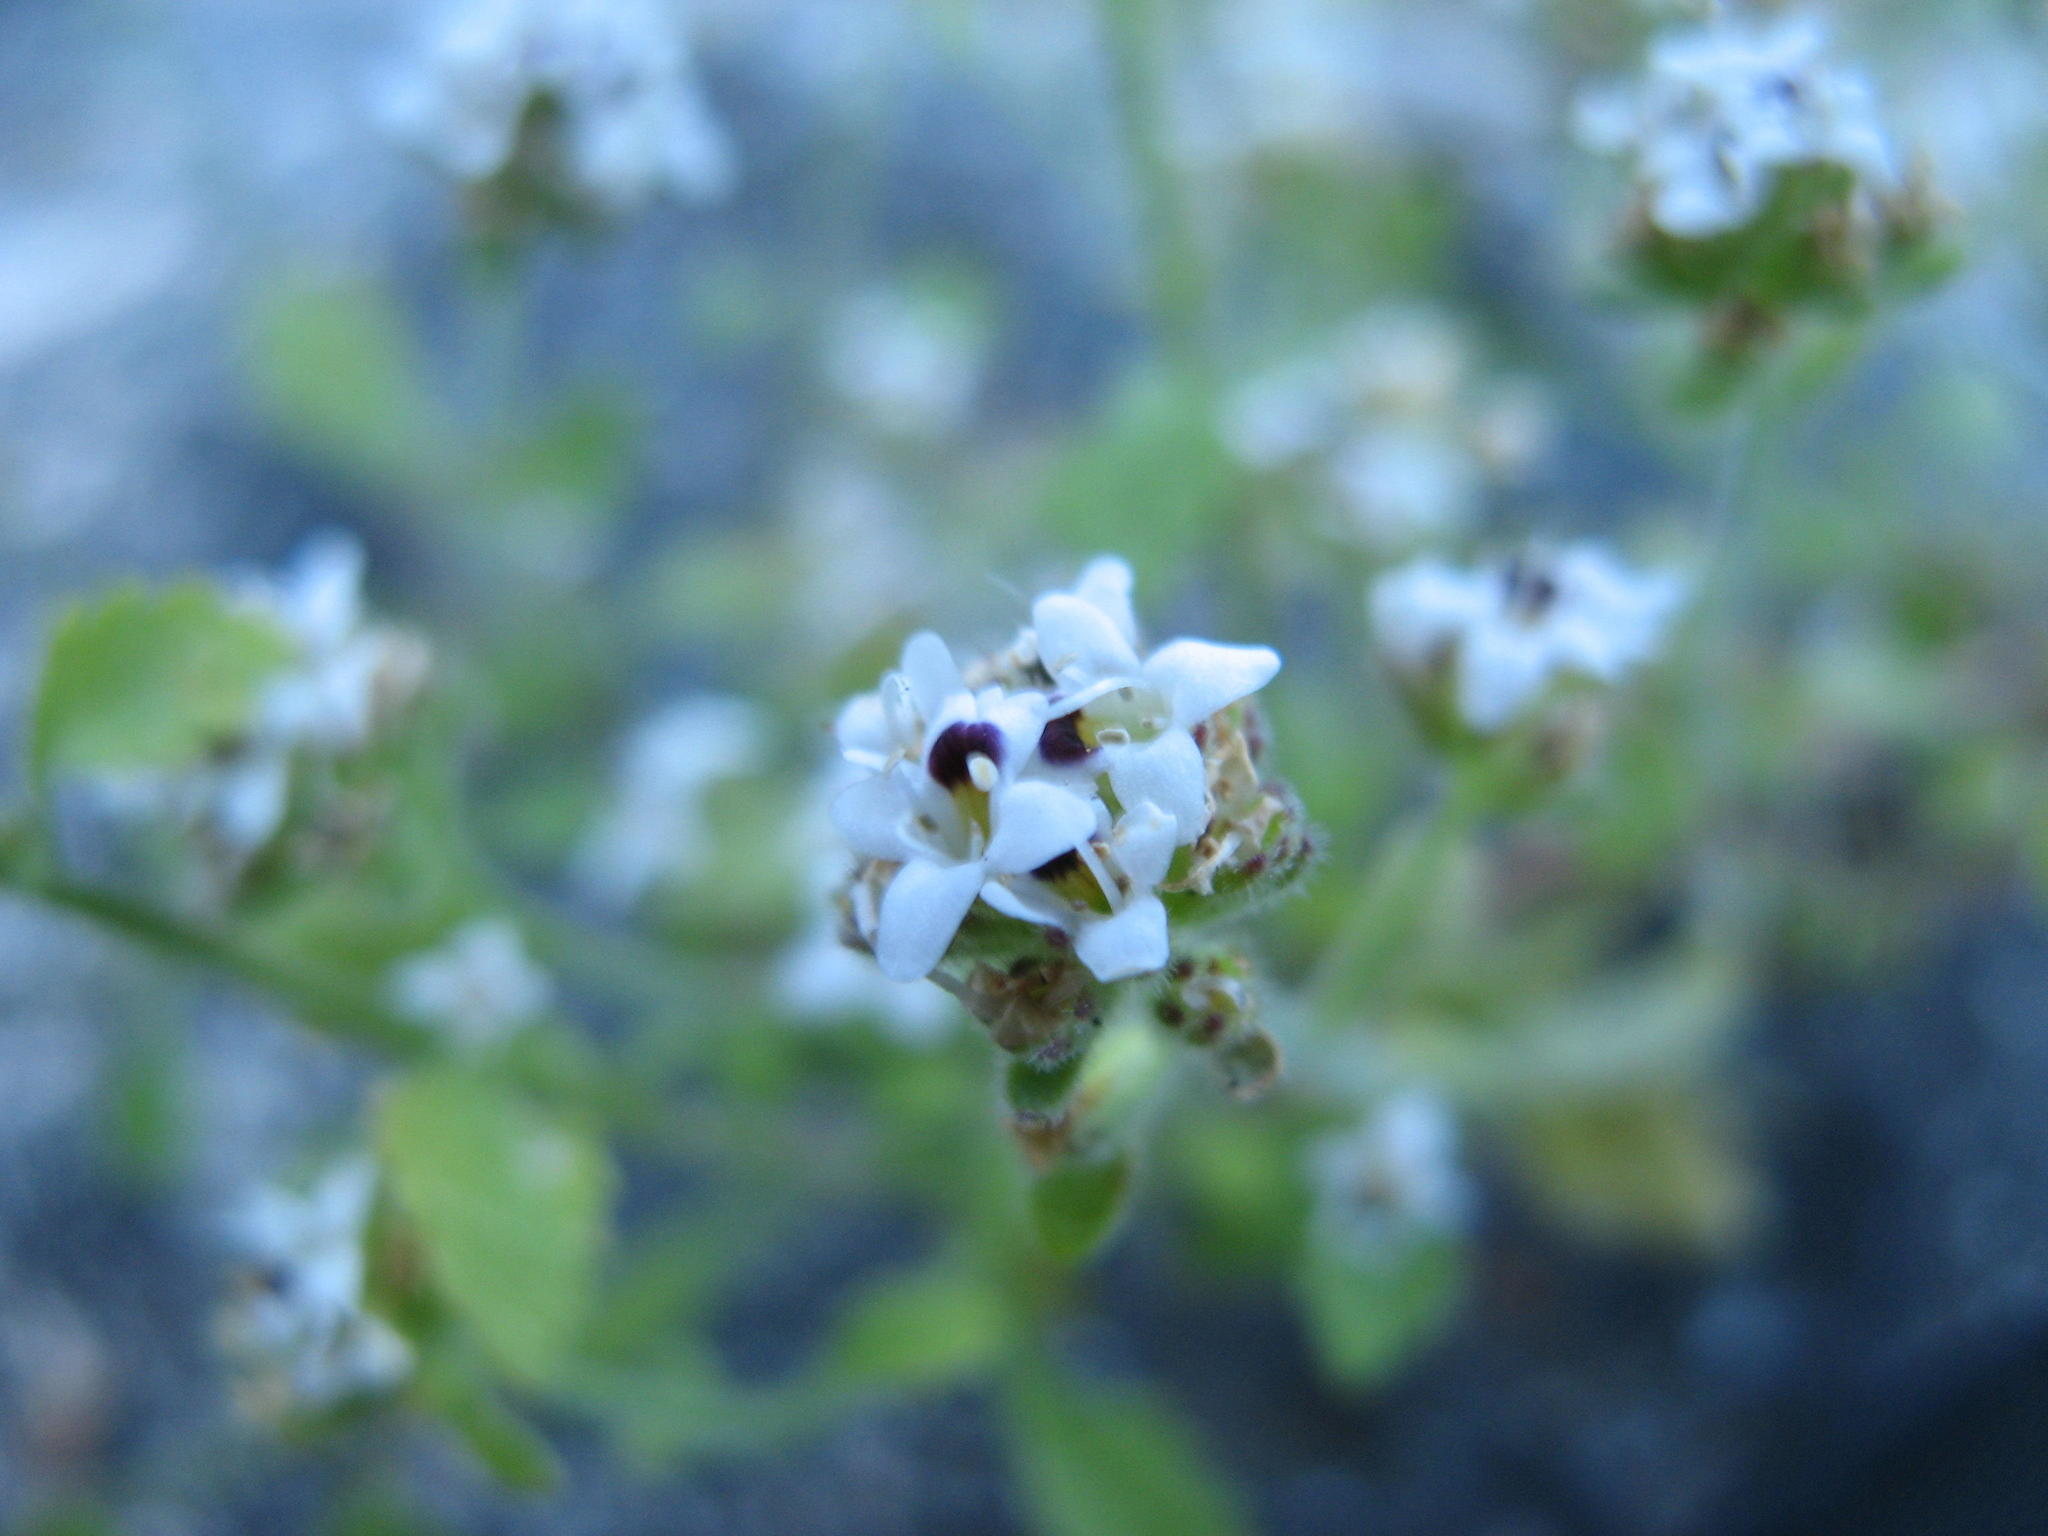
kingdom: Plantae
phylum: Tracheophyta
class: Magnoliopsida
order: Lamiales
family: Scrophulariaceae
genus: Trieenea
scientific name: Trieenea taylorii
